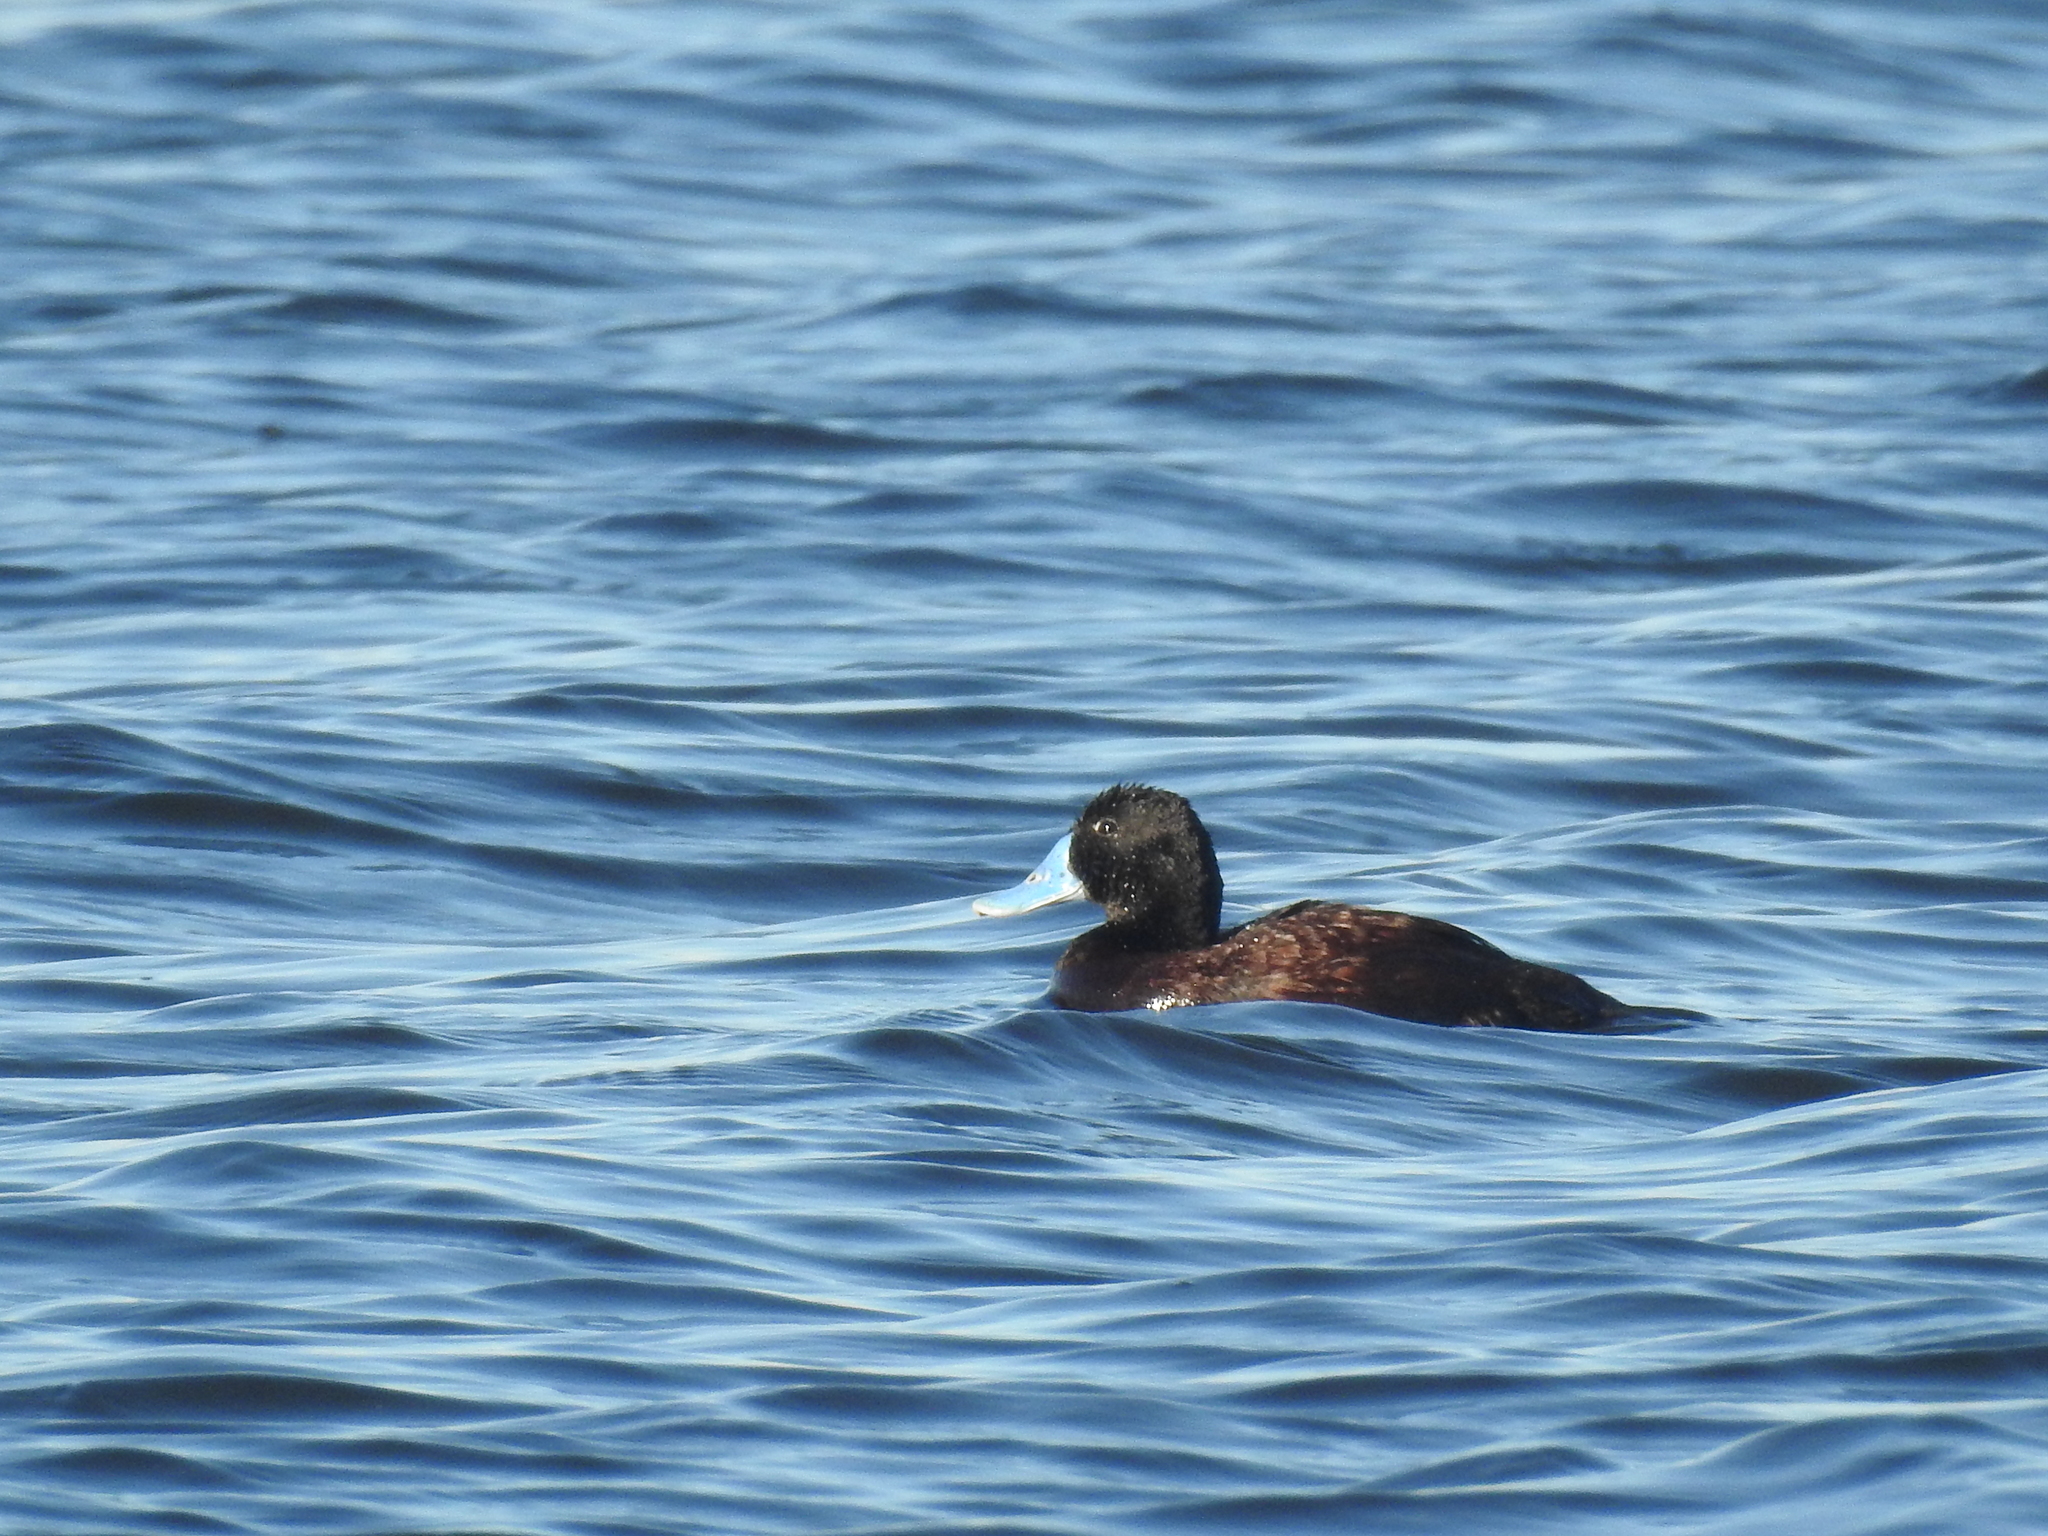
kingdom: Animalia
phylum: Chordata
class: Aves
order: Anseriformes
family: Anatidae
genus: Oxyura
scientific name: Oxyura australis
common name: Blue-billed duck
